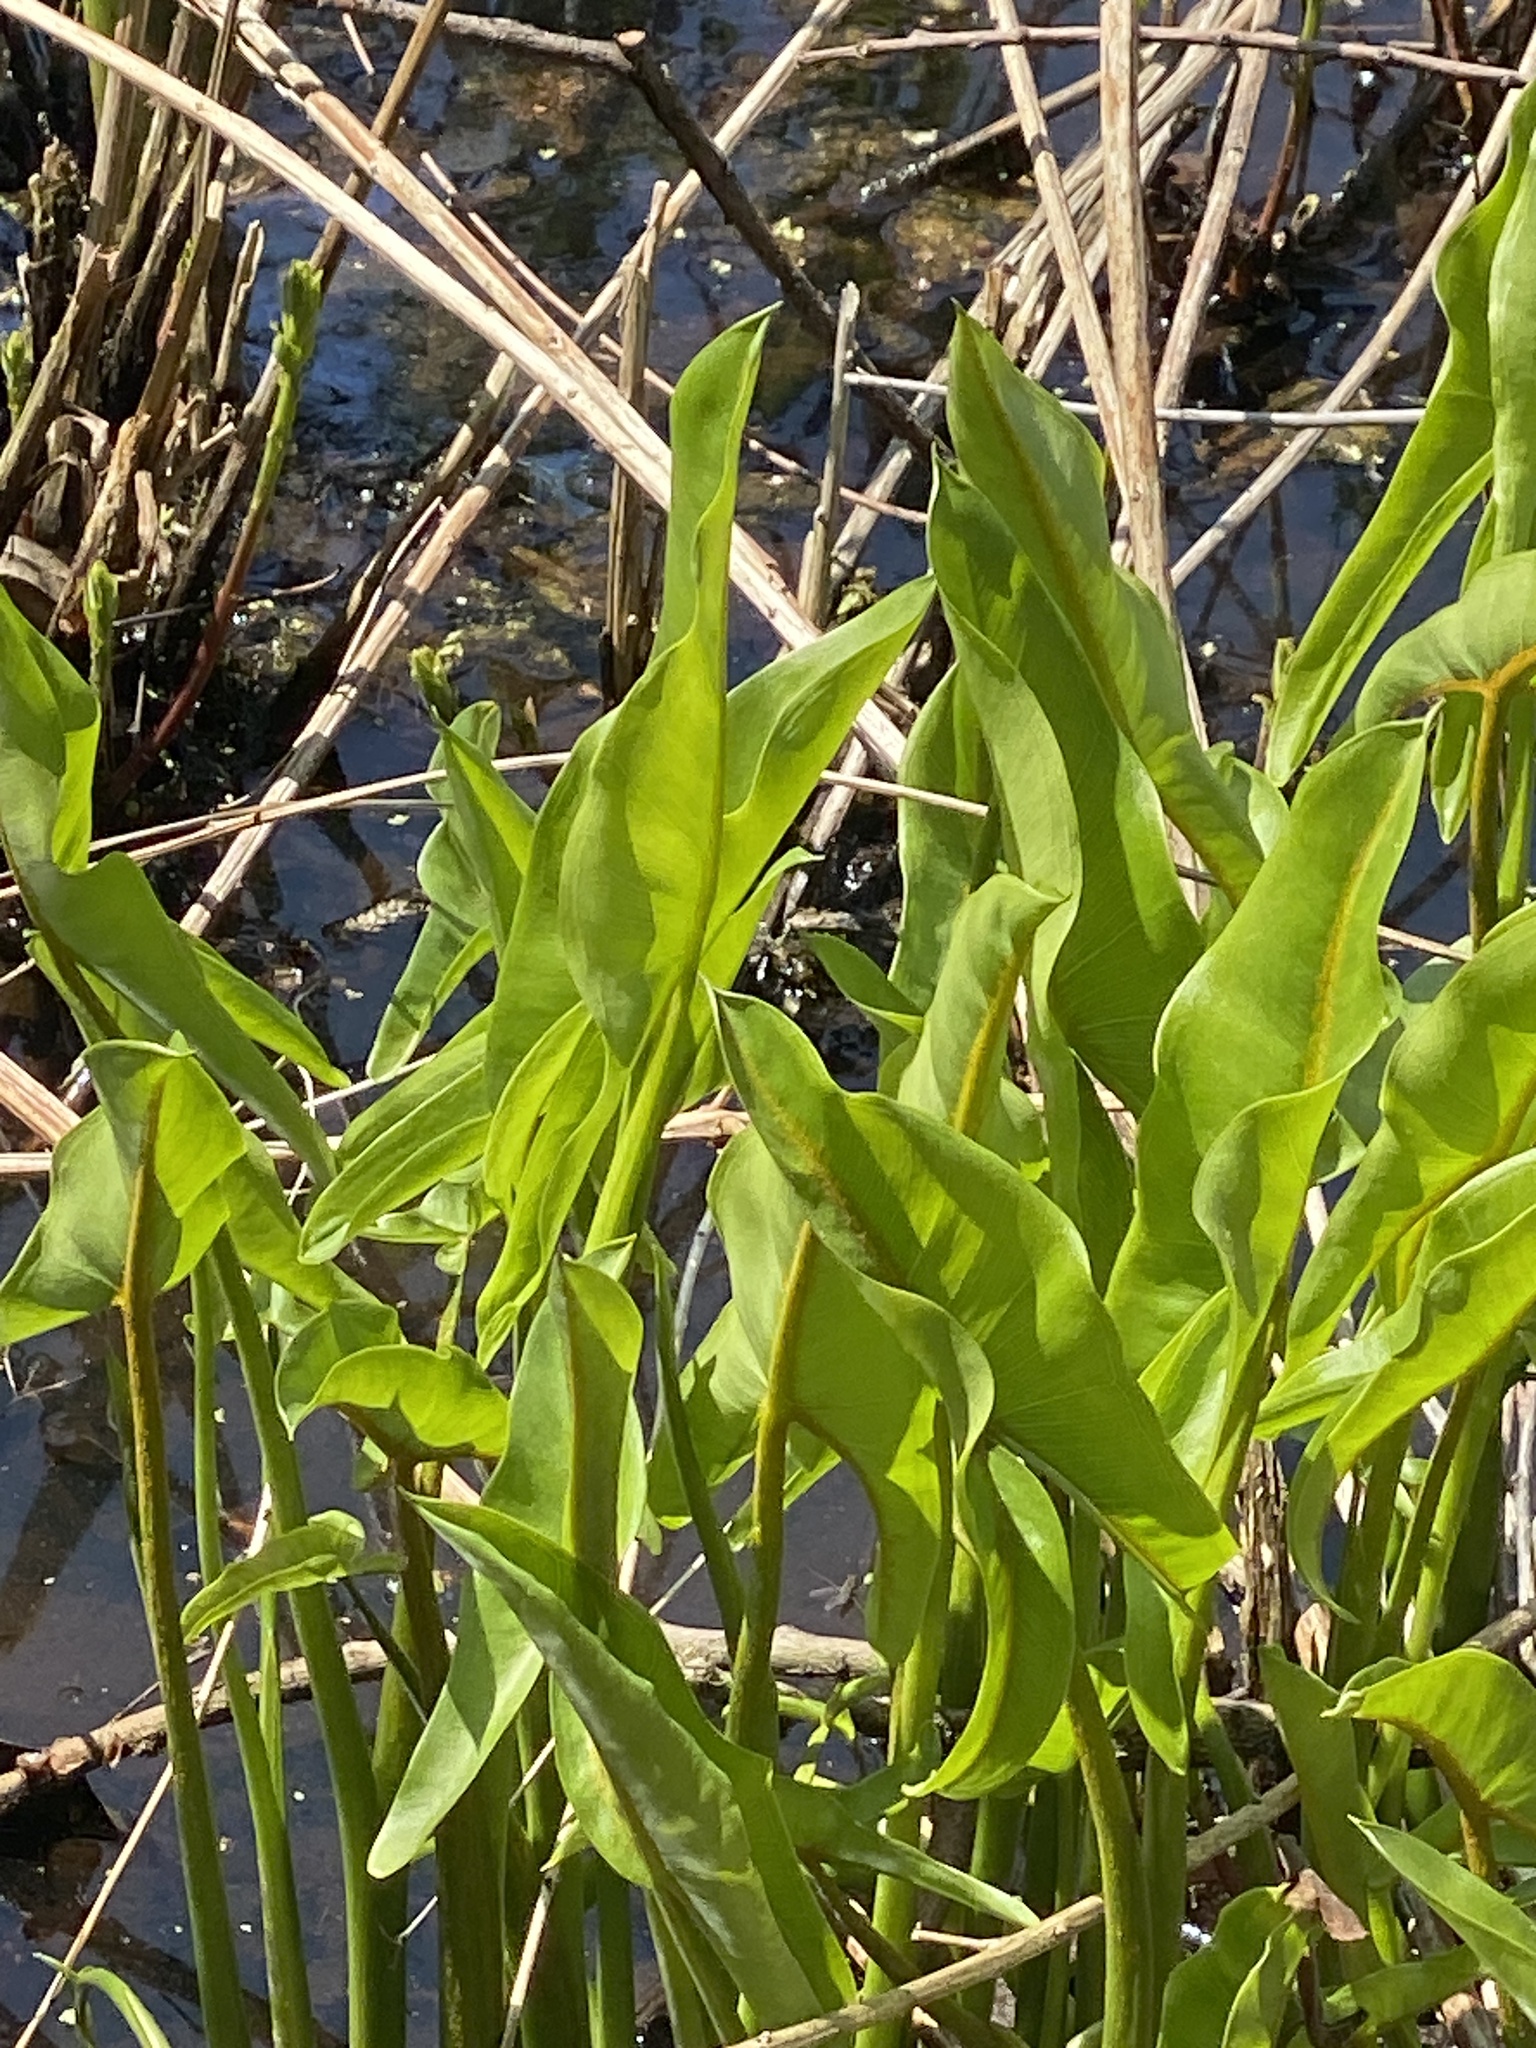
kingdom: Plantae
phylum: Tracheophyta
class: Liliopsida
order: Alismatales
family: Araceae
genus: Peltandra
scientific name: Peltandra virginica
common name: Arrow arum
